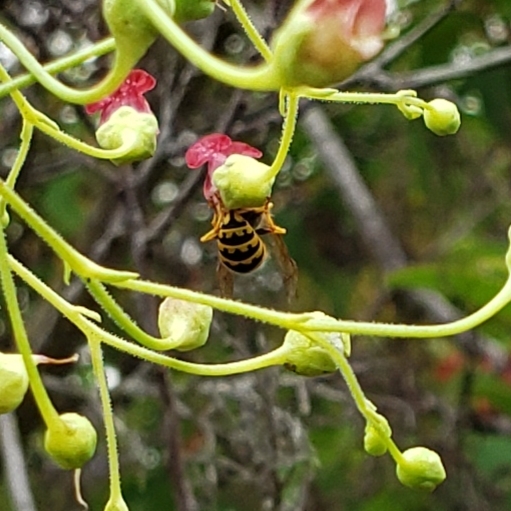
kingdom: Animalia
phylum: Arthropoda
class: Insecta
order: Hymenoptera
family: Vespidae
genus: Vespula
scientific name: Vespula pensylvanica
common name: Western yellowjacket
